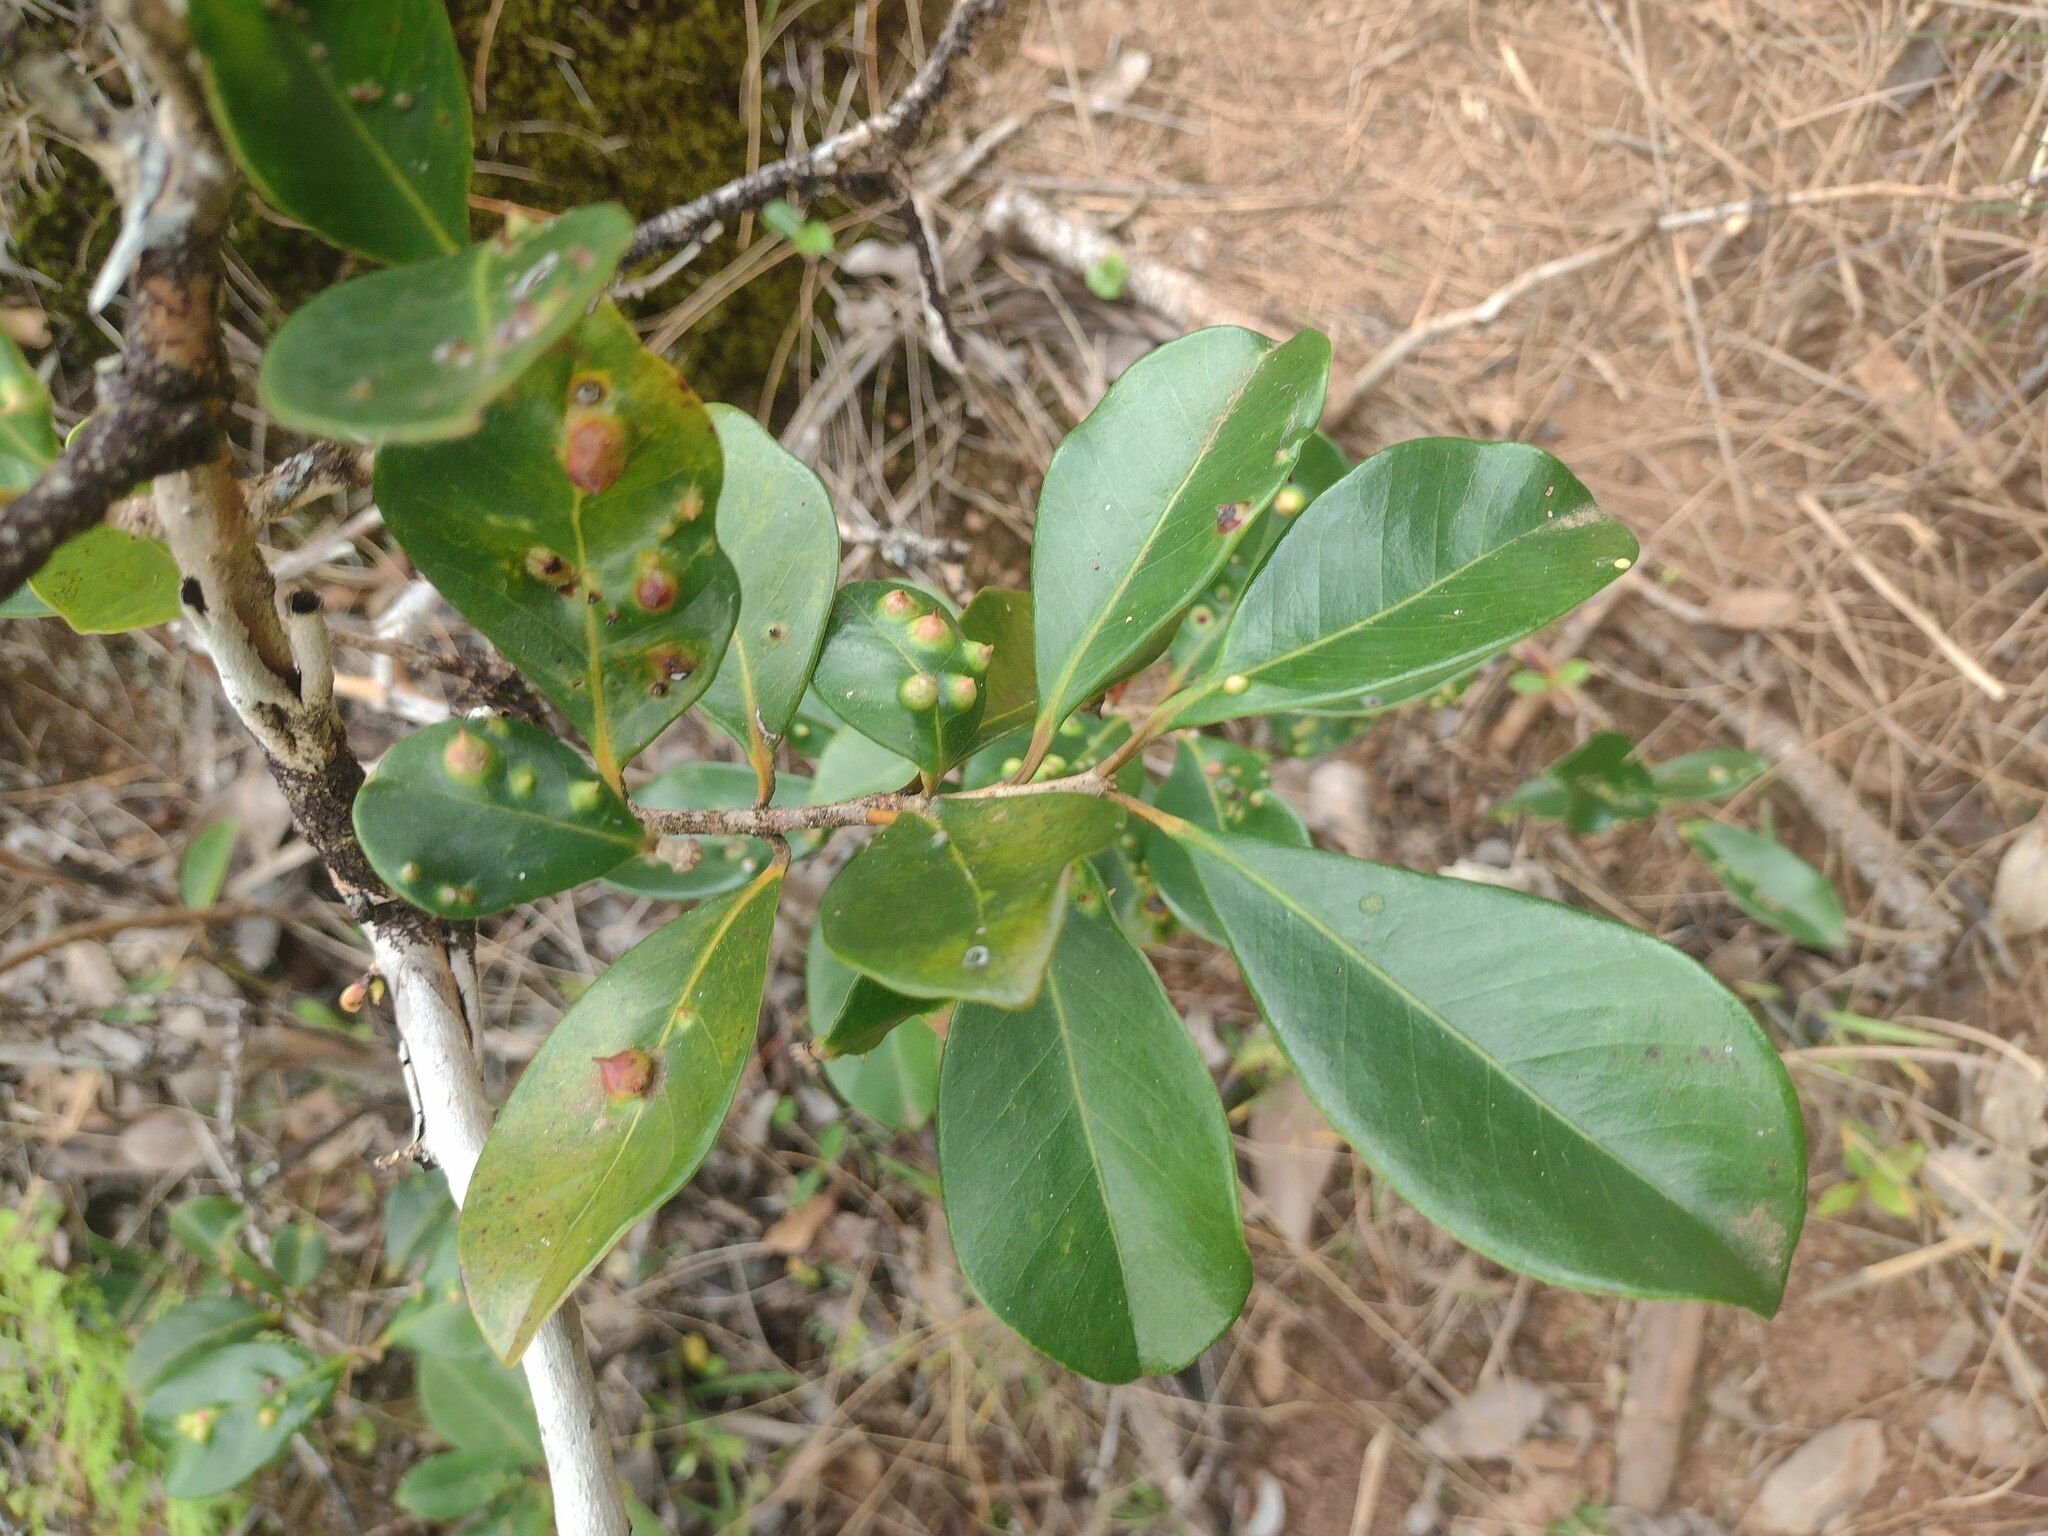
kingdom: Animalia
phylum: Arthropoda
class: Insecta
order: Hemiptera
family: Eriococcidae
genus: Tectococcus
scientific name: Tectococcus ovatus
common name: Eriococcid scale
